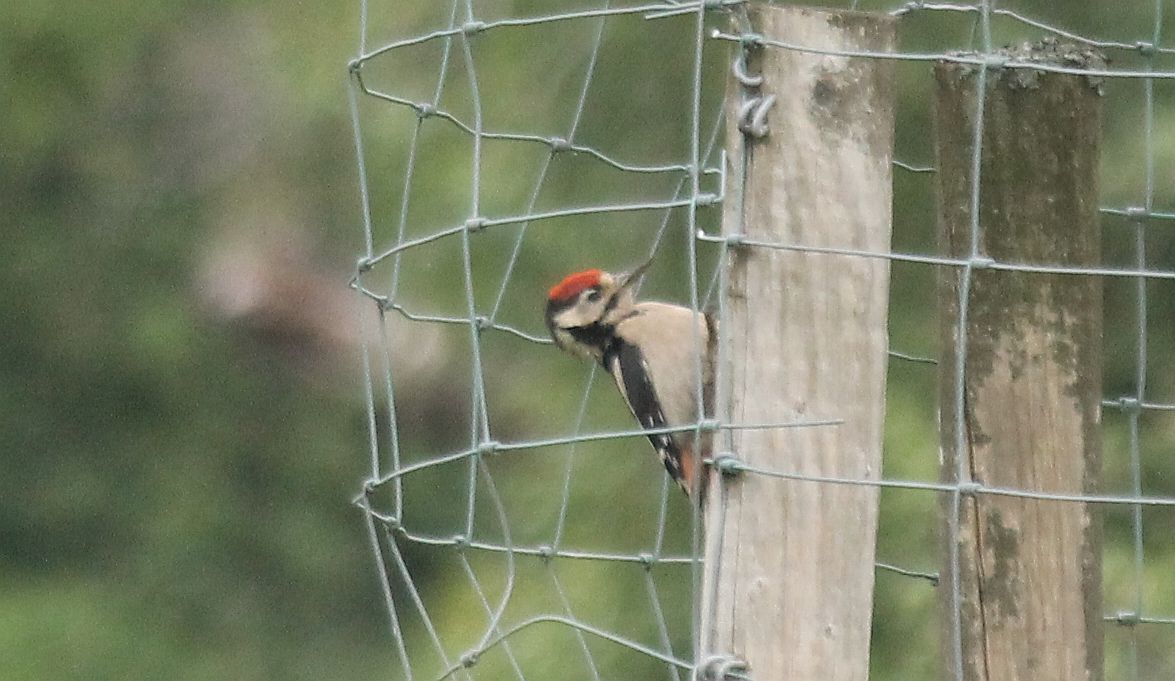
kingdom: Animalia
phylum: Chordata
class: Aves
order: Piciformes
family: Picidae
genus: Dendrocopos
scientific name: Dendrocopos major
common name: Great spotted woodpecker
